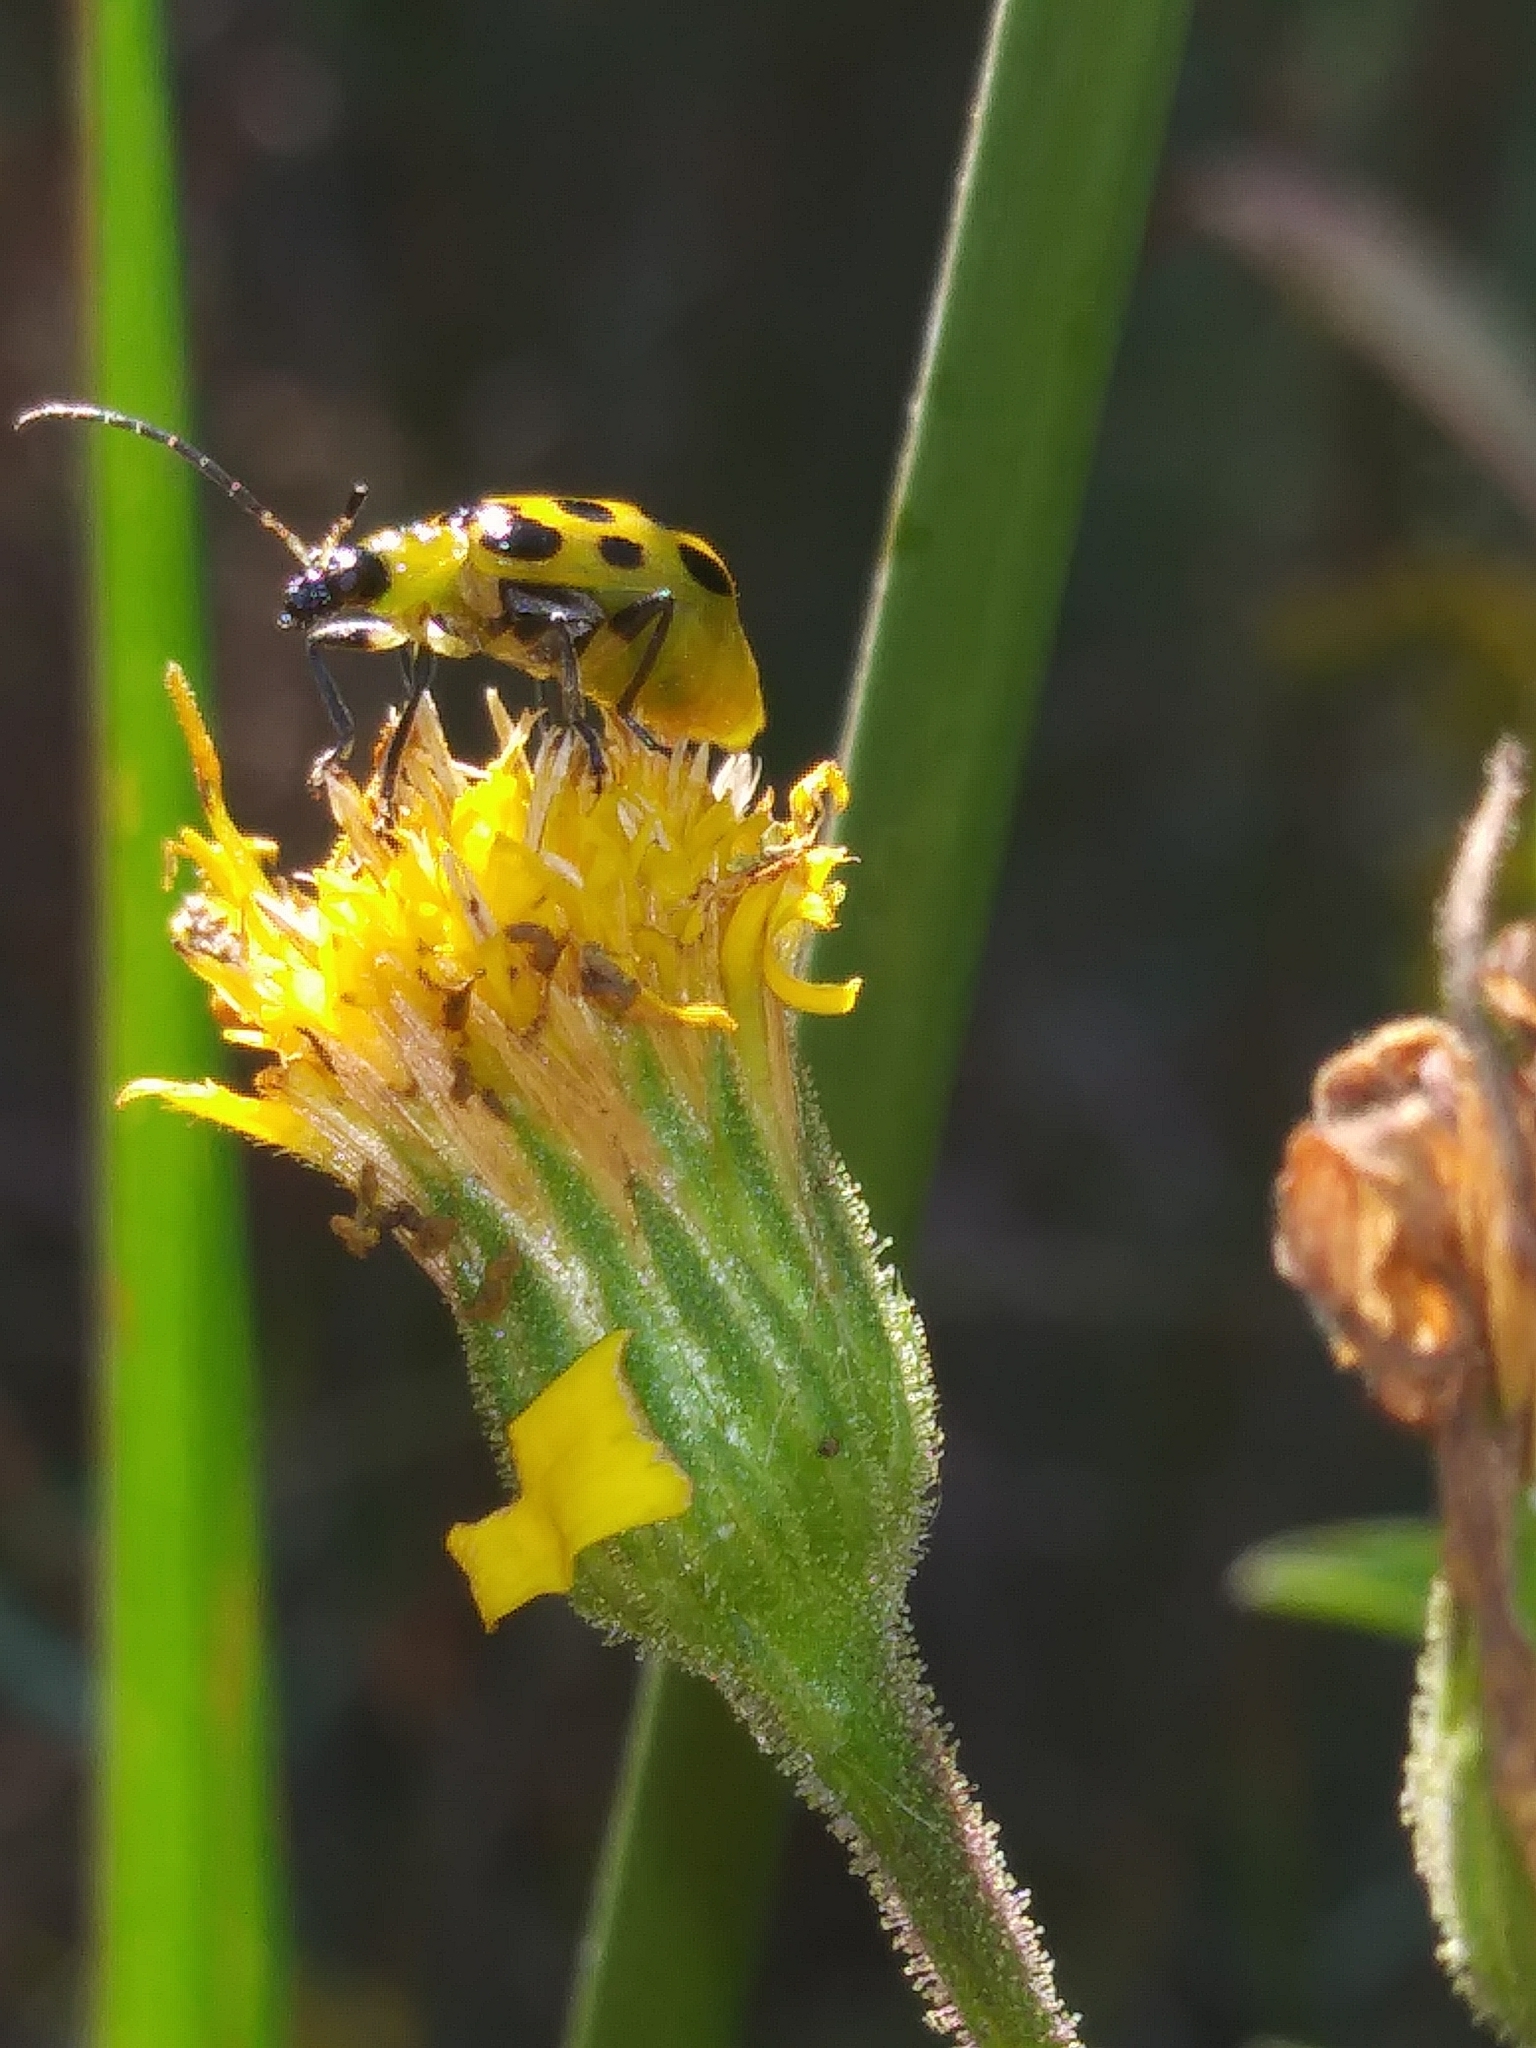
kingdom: Animalia
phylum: Arthropoda
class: Insecta
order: Coleoptera
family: Chrysomelidae
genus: Diabrotica
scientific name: Diabrotica undecimpunctata
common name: Spotted cucumber beetle
